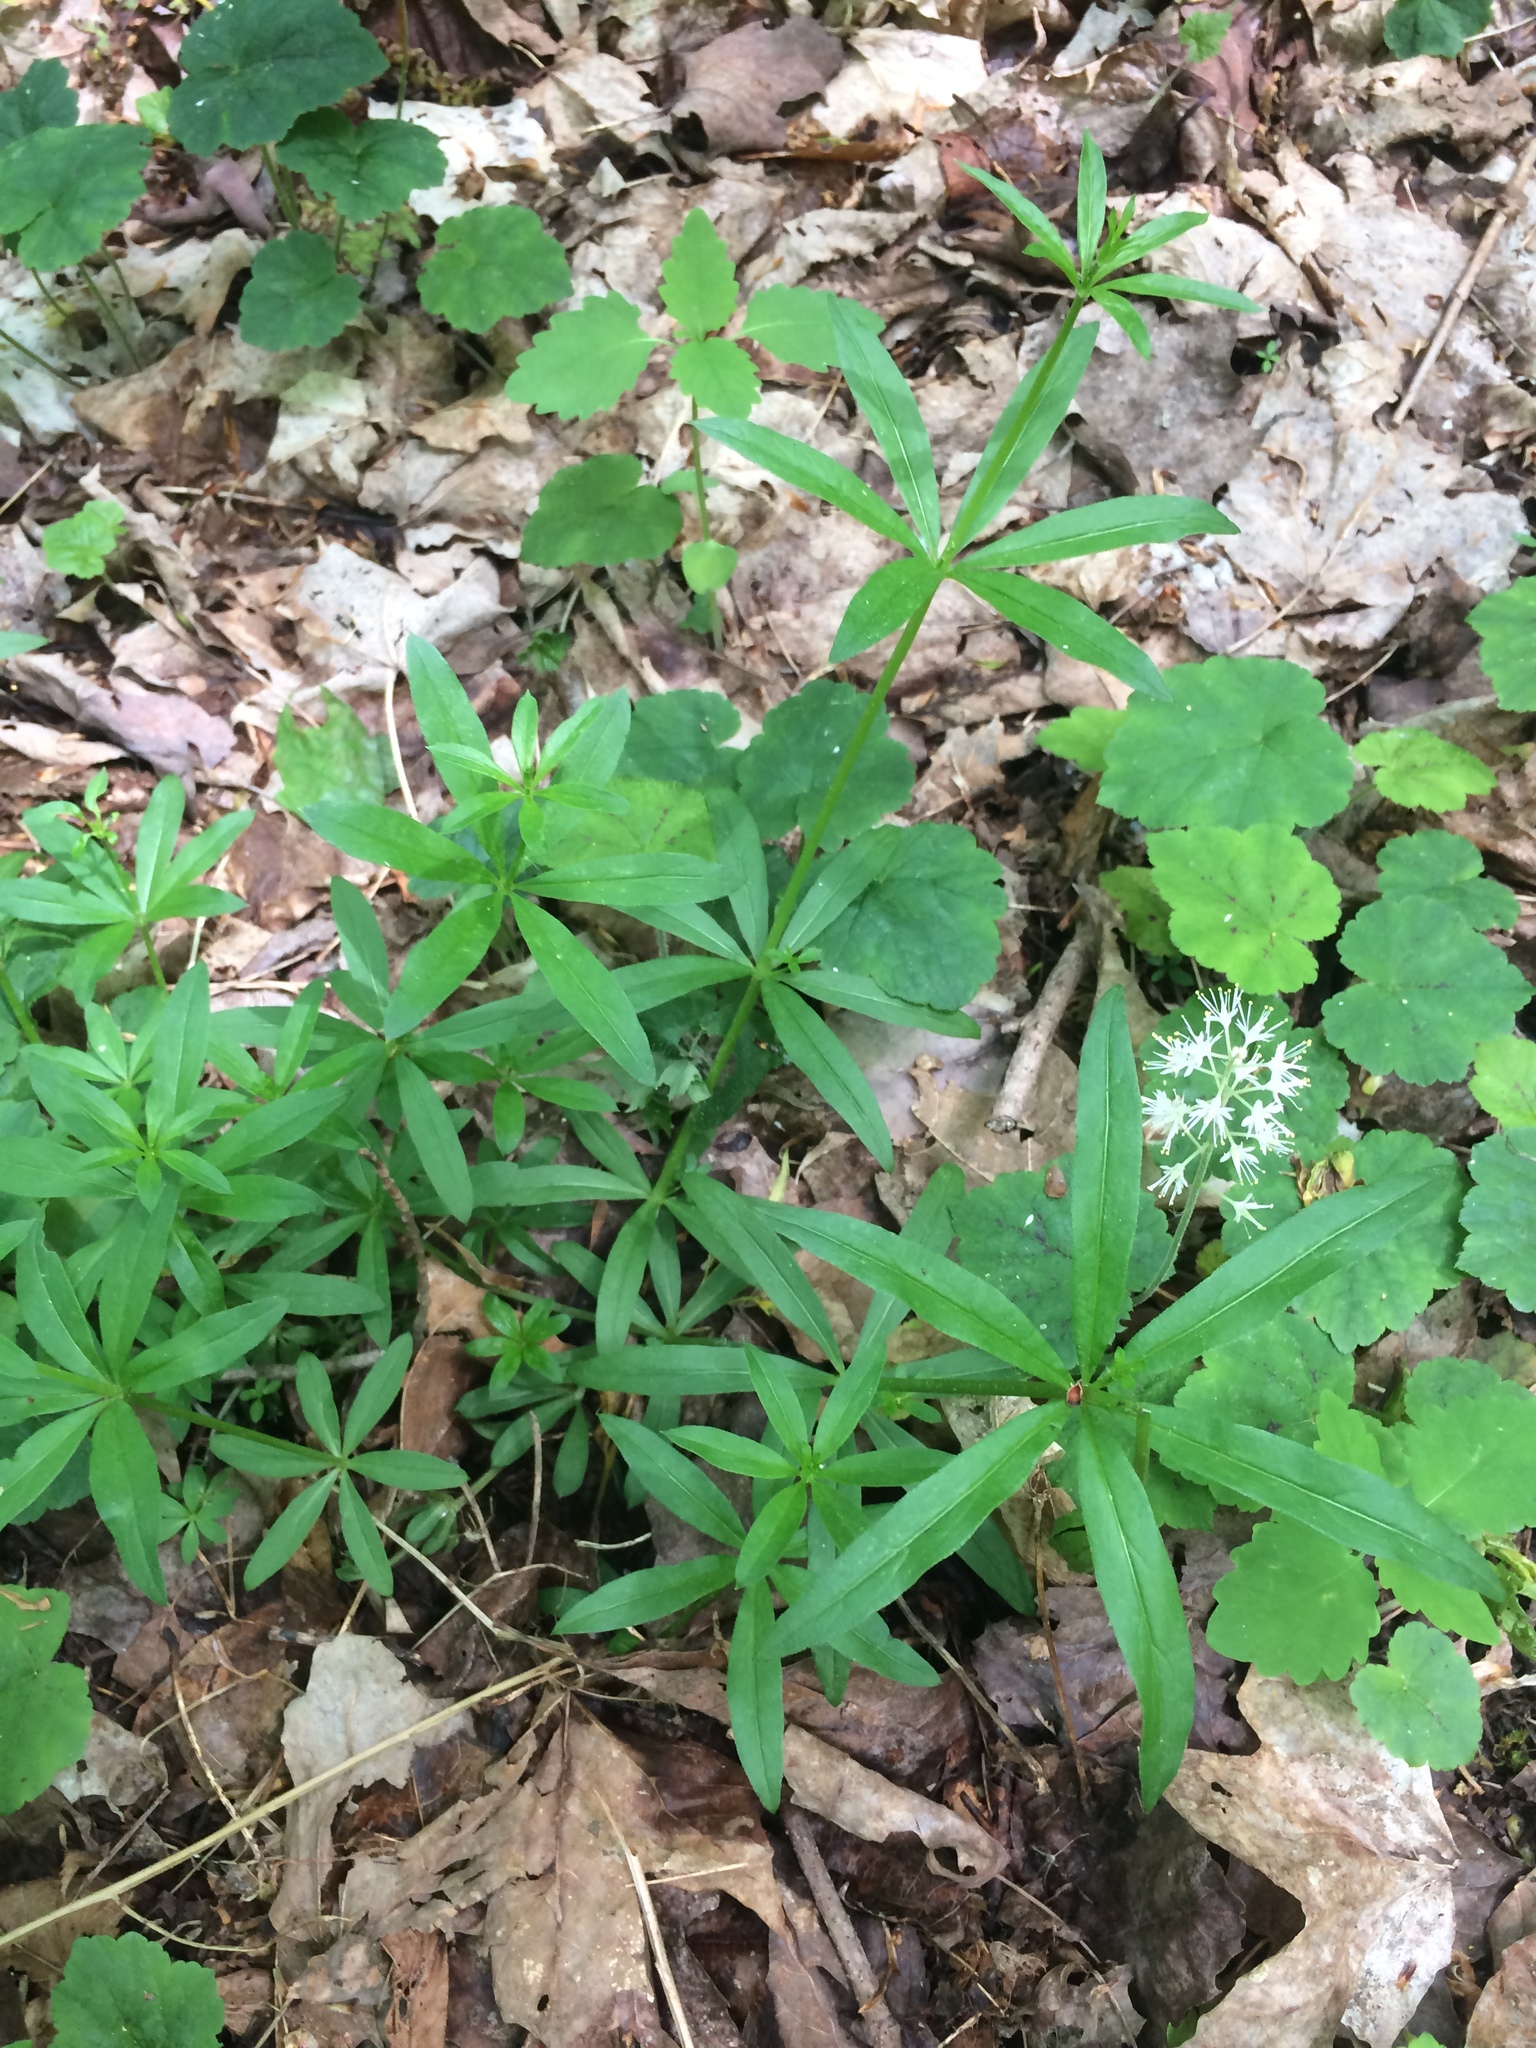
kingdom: Plantae
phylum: Tracheophyta
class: Magnoliopsida
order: Saxifragales
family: Saxifragaceae
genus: Tiarella
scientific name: Tiarella stolonifera
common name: Stoloniferous foamflower
